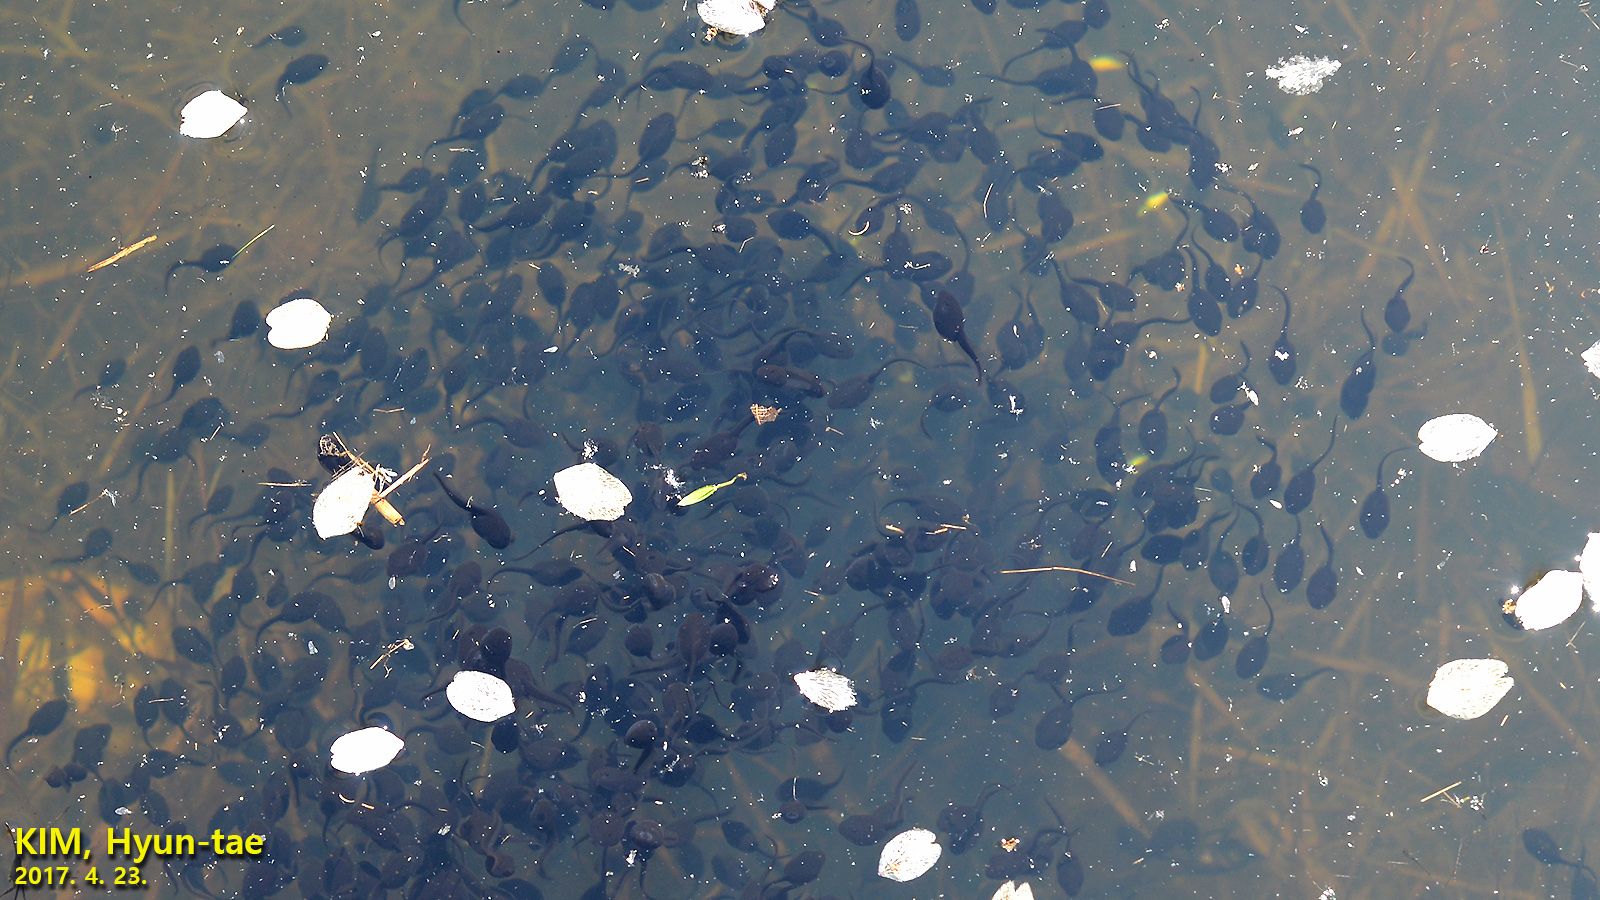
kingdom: Animalia
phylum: Chordata
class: Amphibia
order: Anura
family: Bufonidae
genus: Bufo
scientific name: Bufo gargarizans
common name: Asiatic toad
